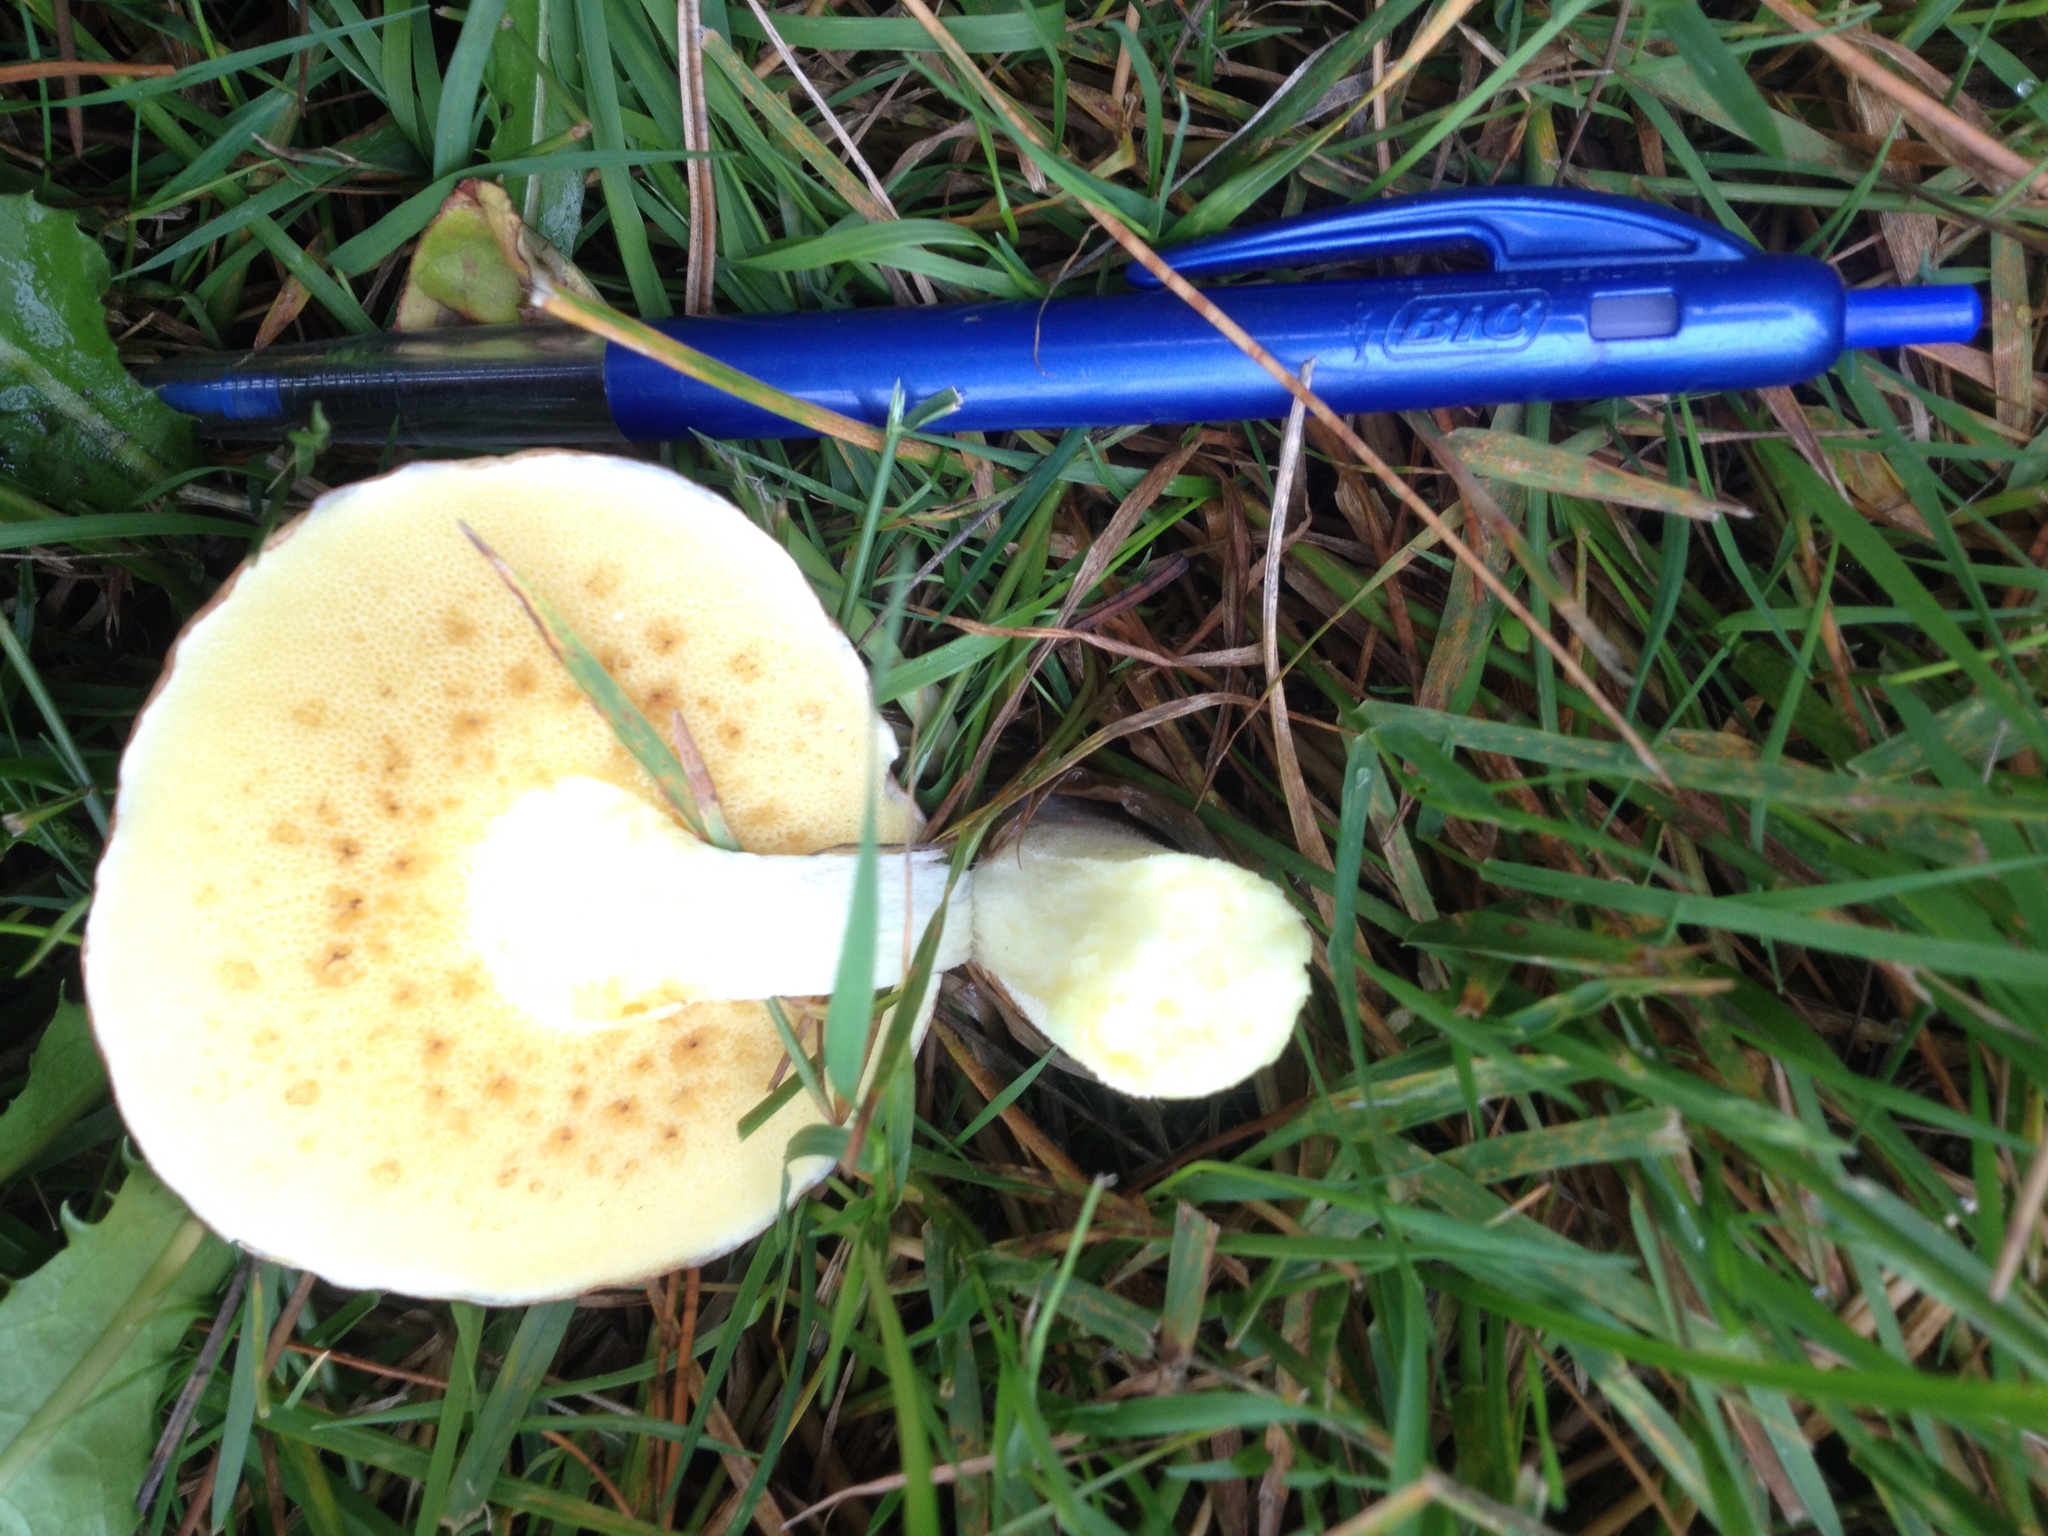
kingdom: Fungi
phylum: Basidiomycota
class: Agaricomycetes
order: Boletales
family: Suillaceae
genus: Suillus
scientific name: Suillus granulatus
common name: Weeping bolete
